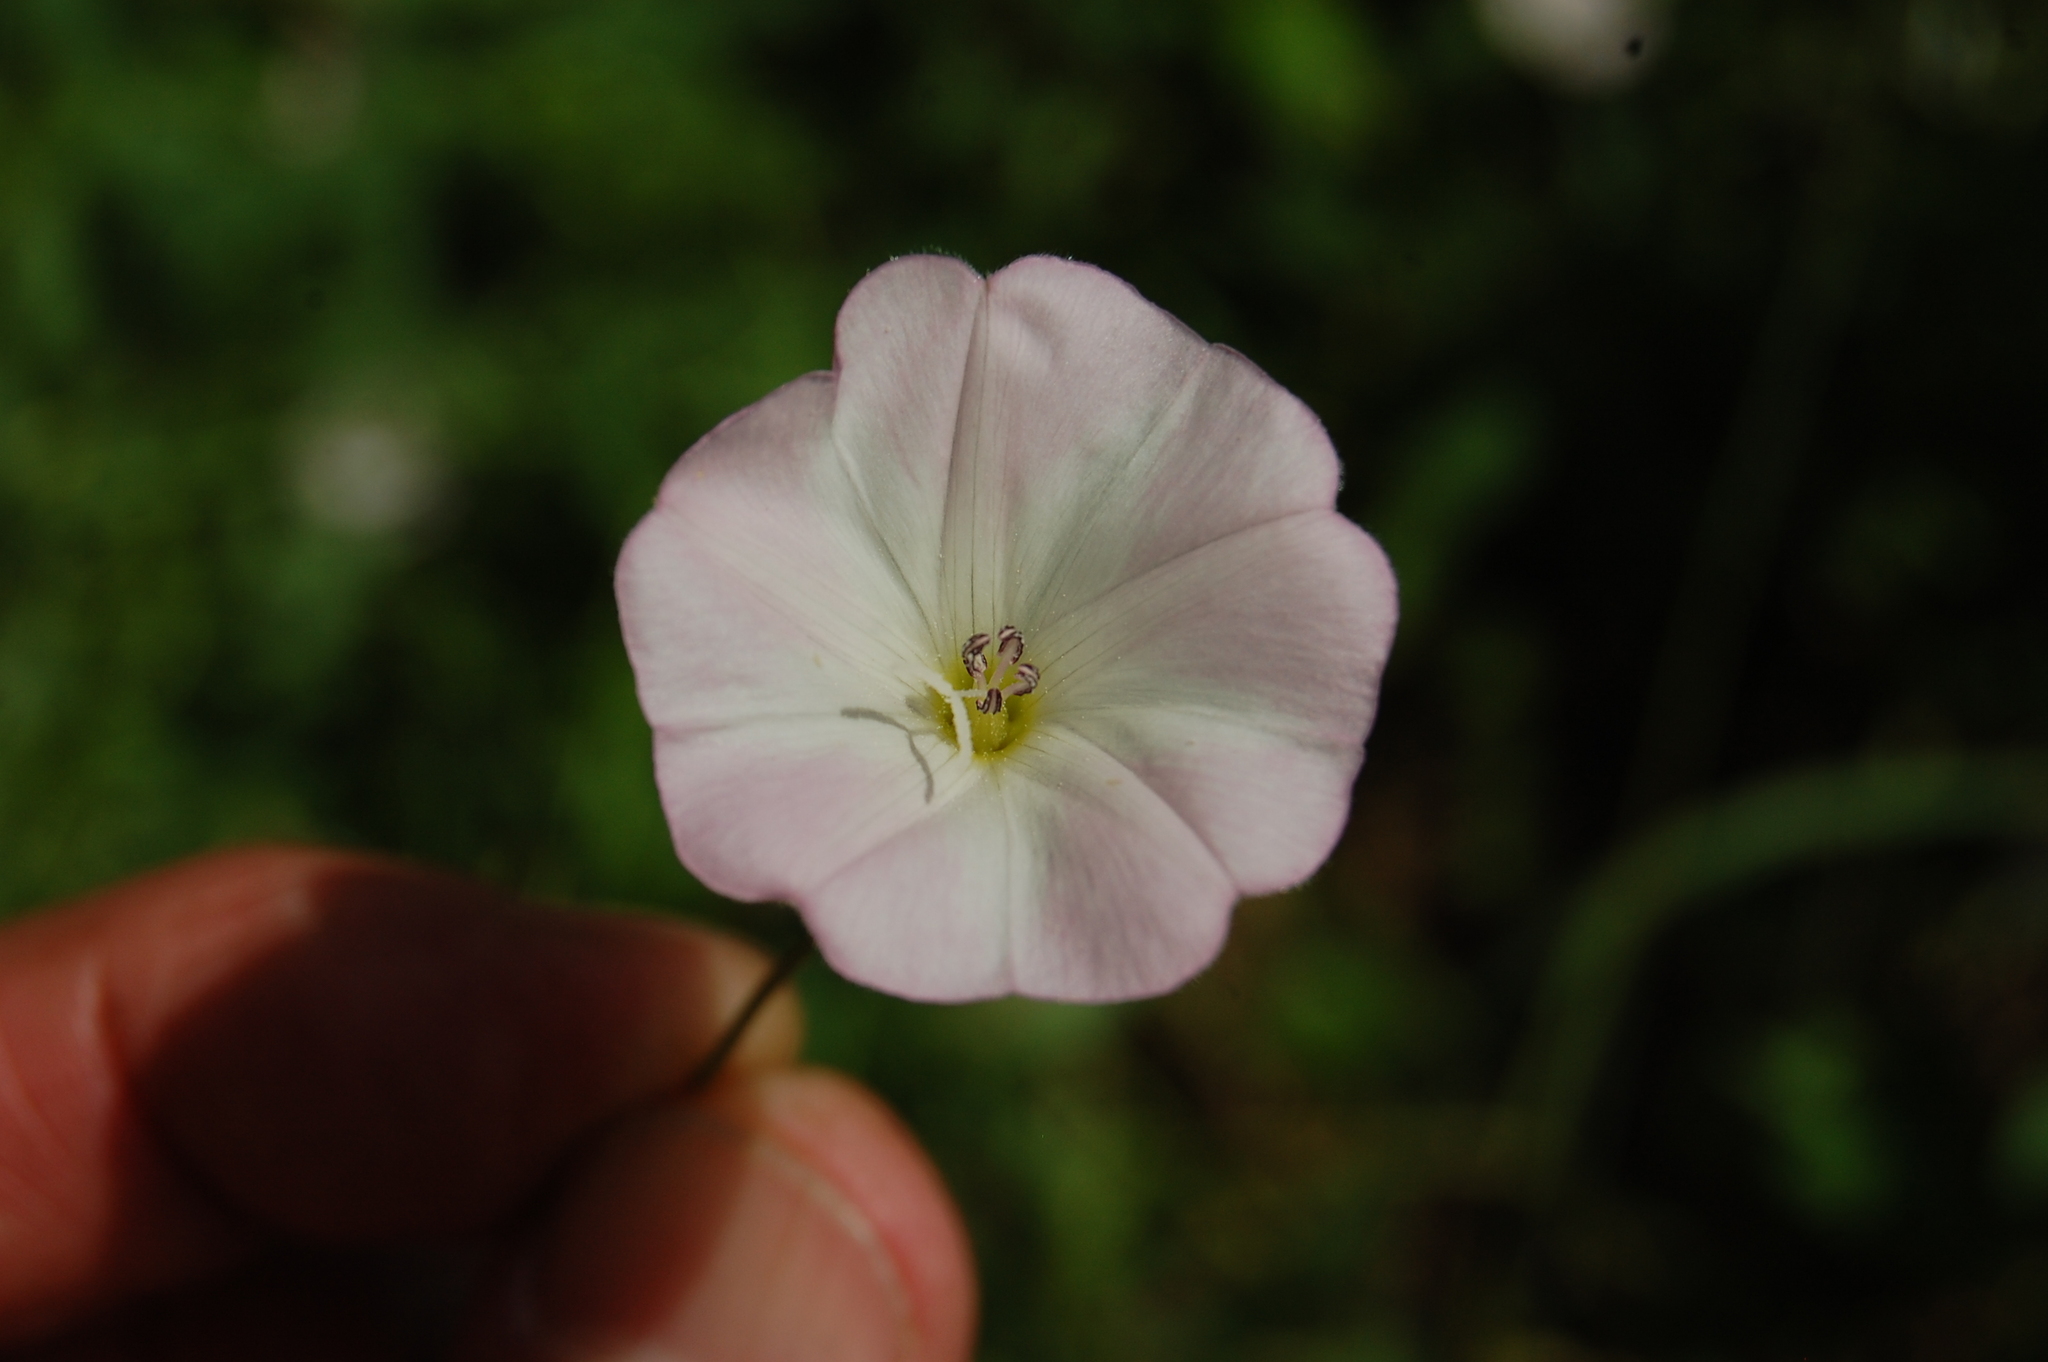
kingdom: Plantae
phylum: Tracheophyta
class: Magnoliopsida
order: Solanales
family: Convolvulaceae
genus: Convolvulus
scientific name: Convolvulus arvensis
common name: Field bindweed
